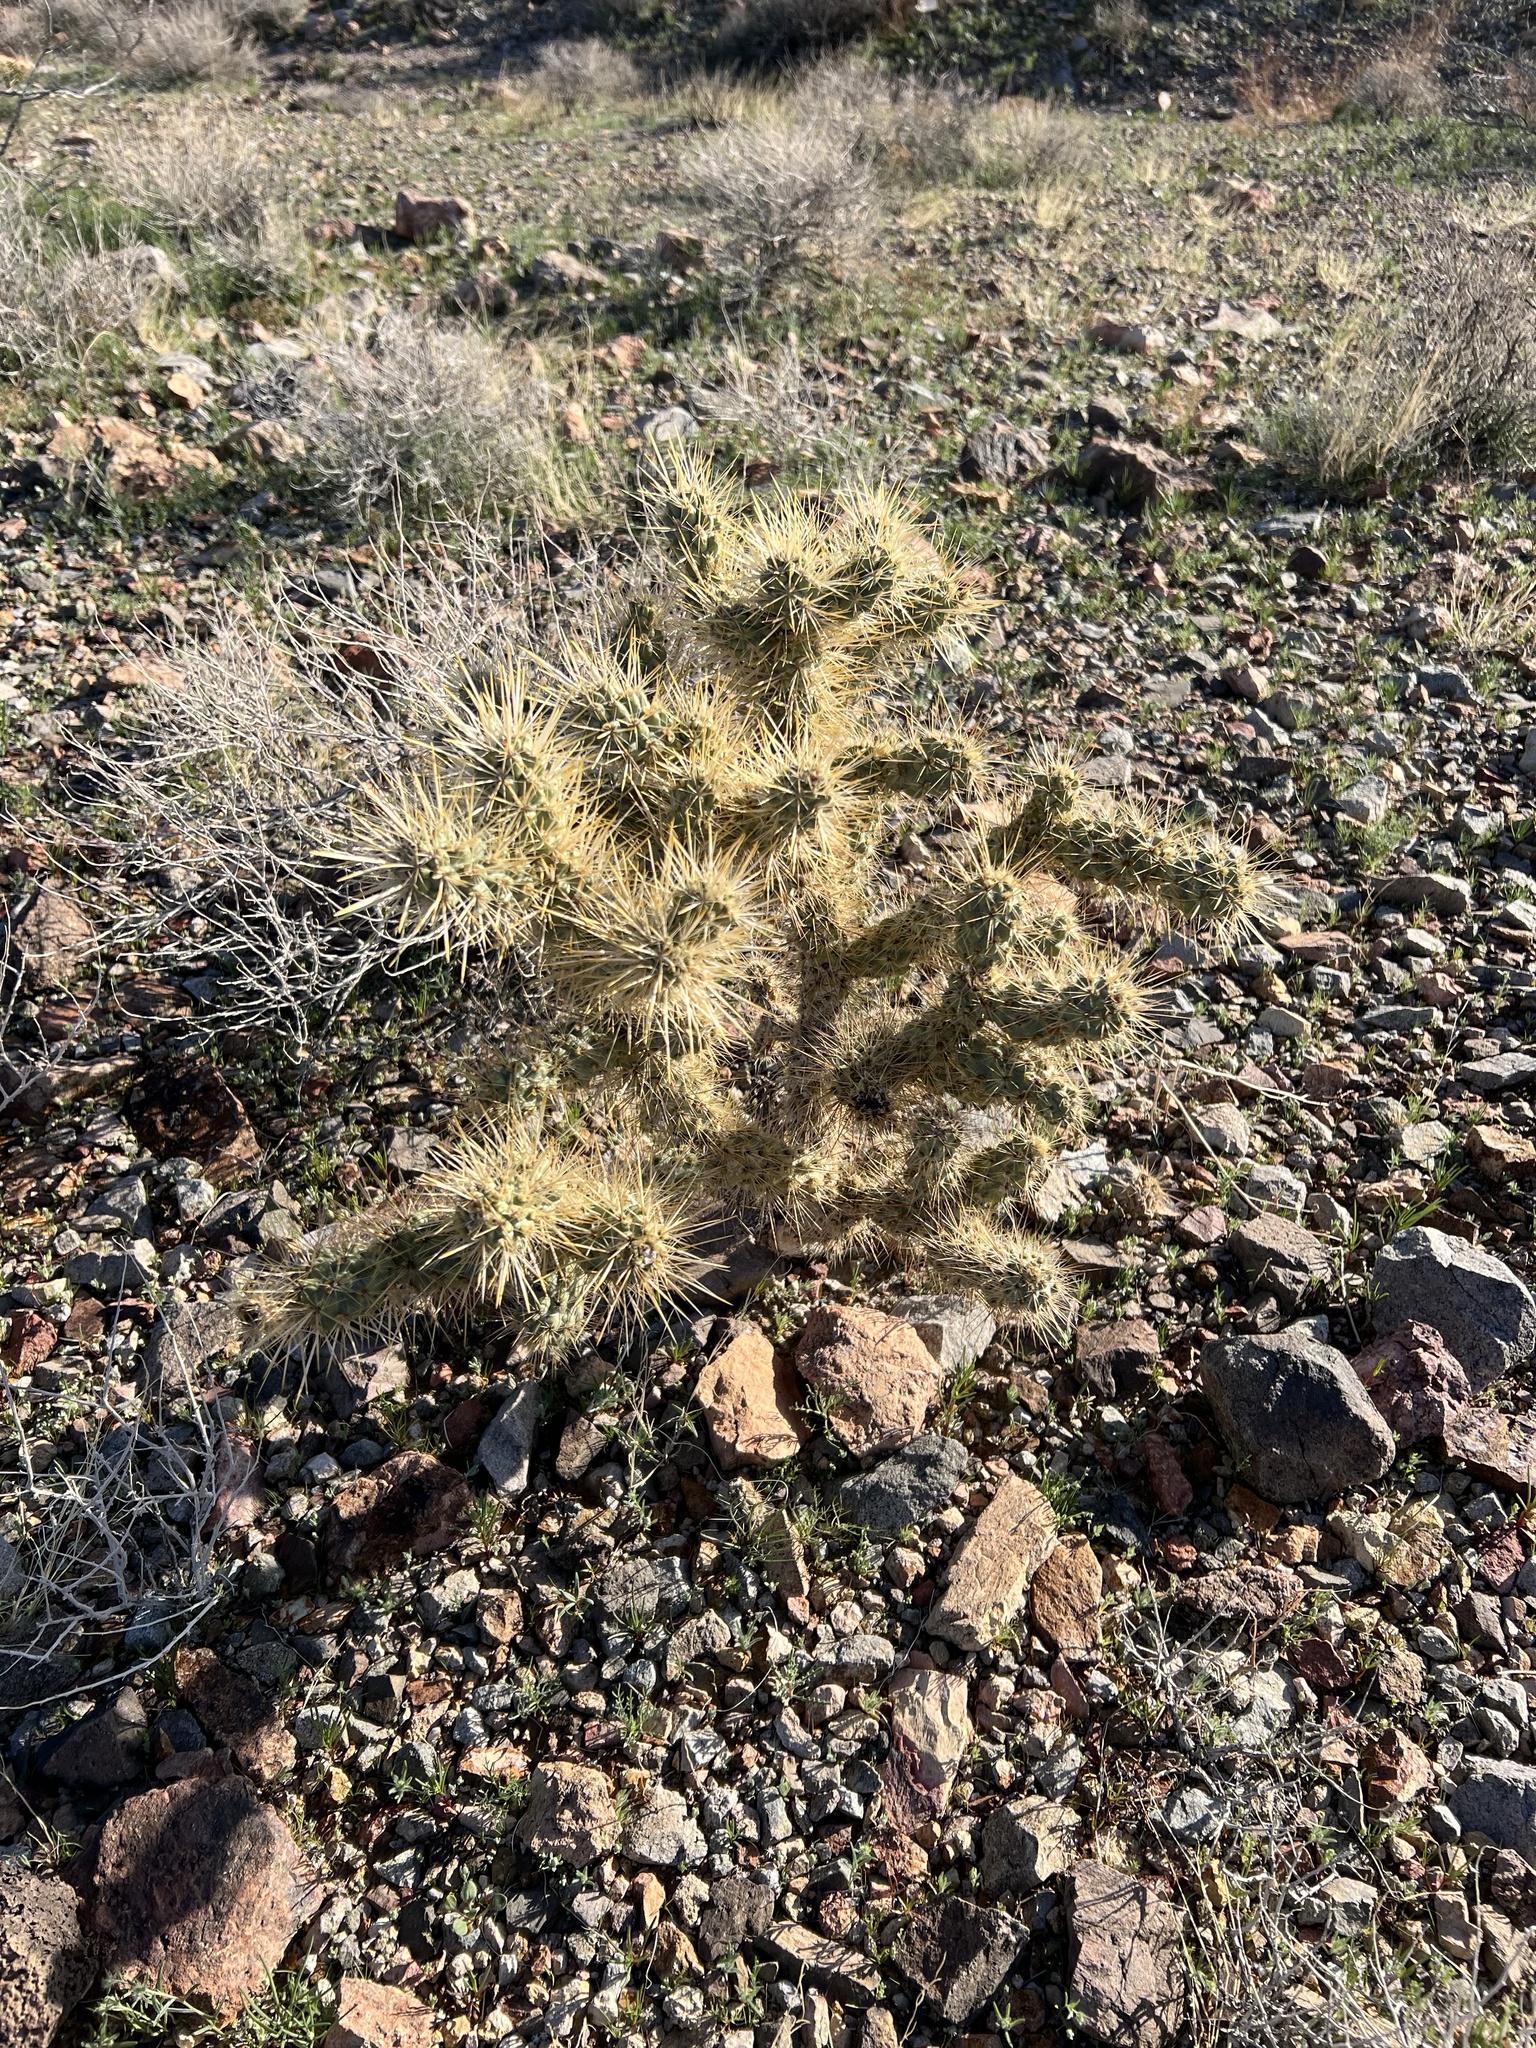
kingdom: Plantae
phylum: Tracheophyta
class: Magnoliopsida
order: Caryophyllales
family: Cactaceae
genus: Cylindropuntia
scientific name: Cylindropuntia echinocarpa
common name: Ground cholla
